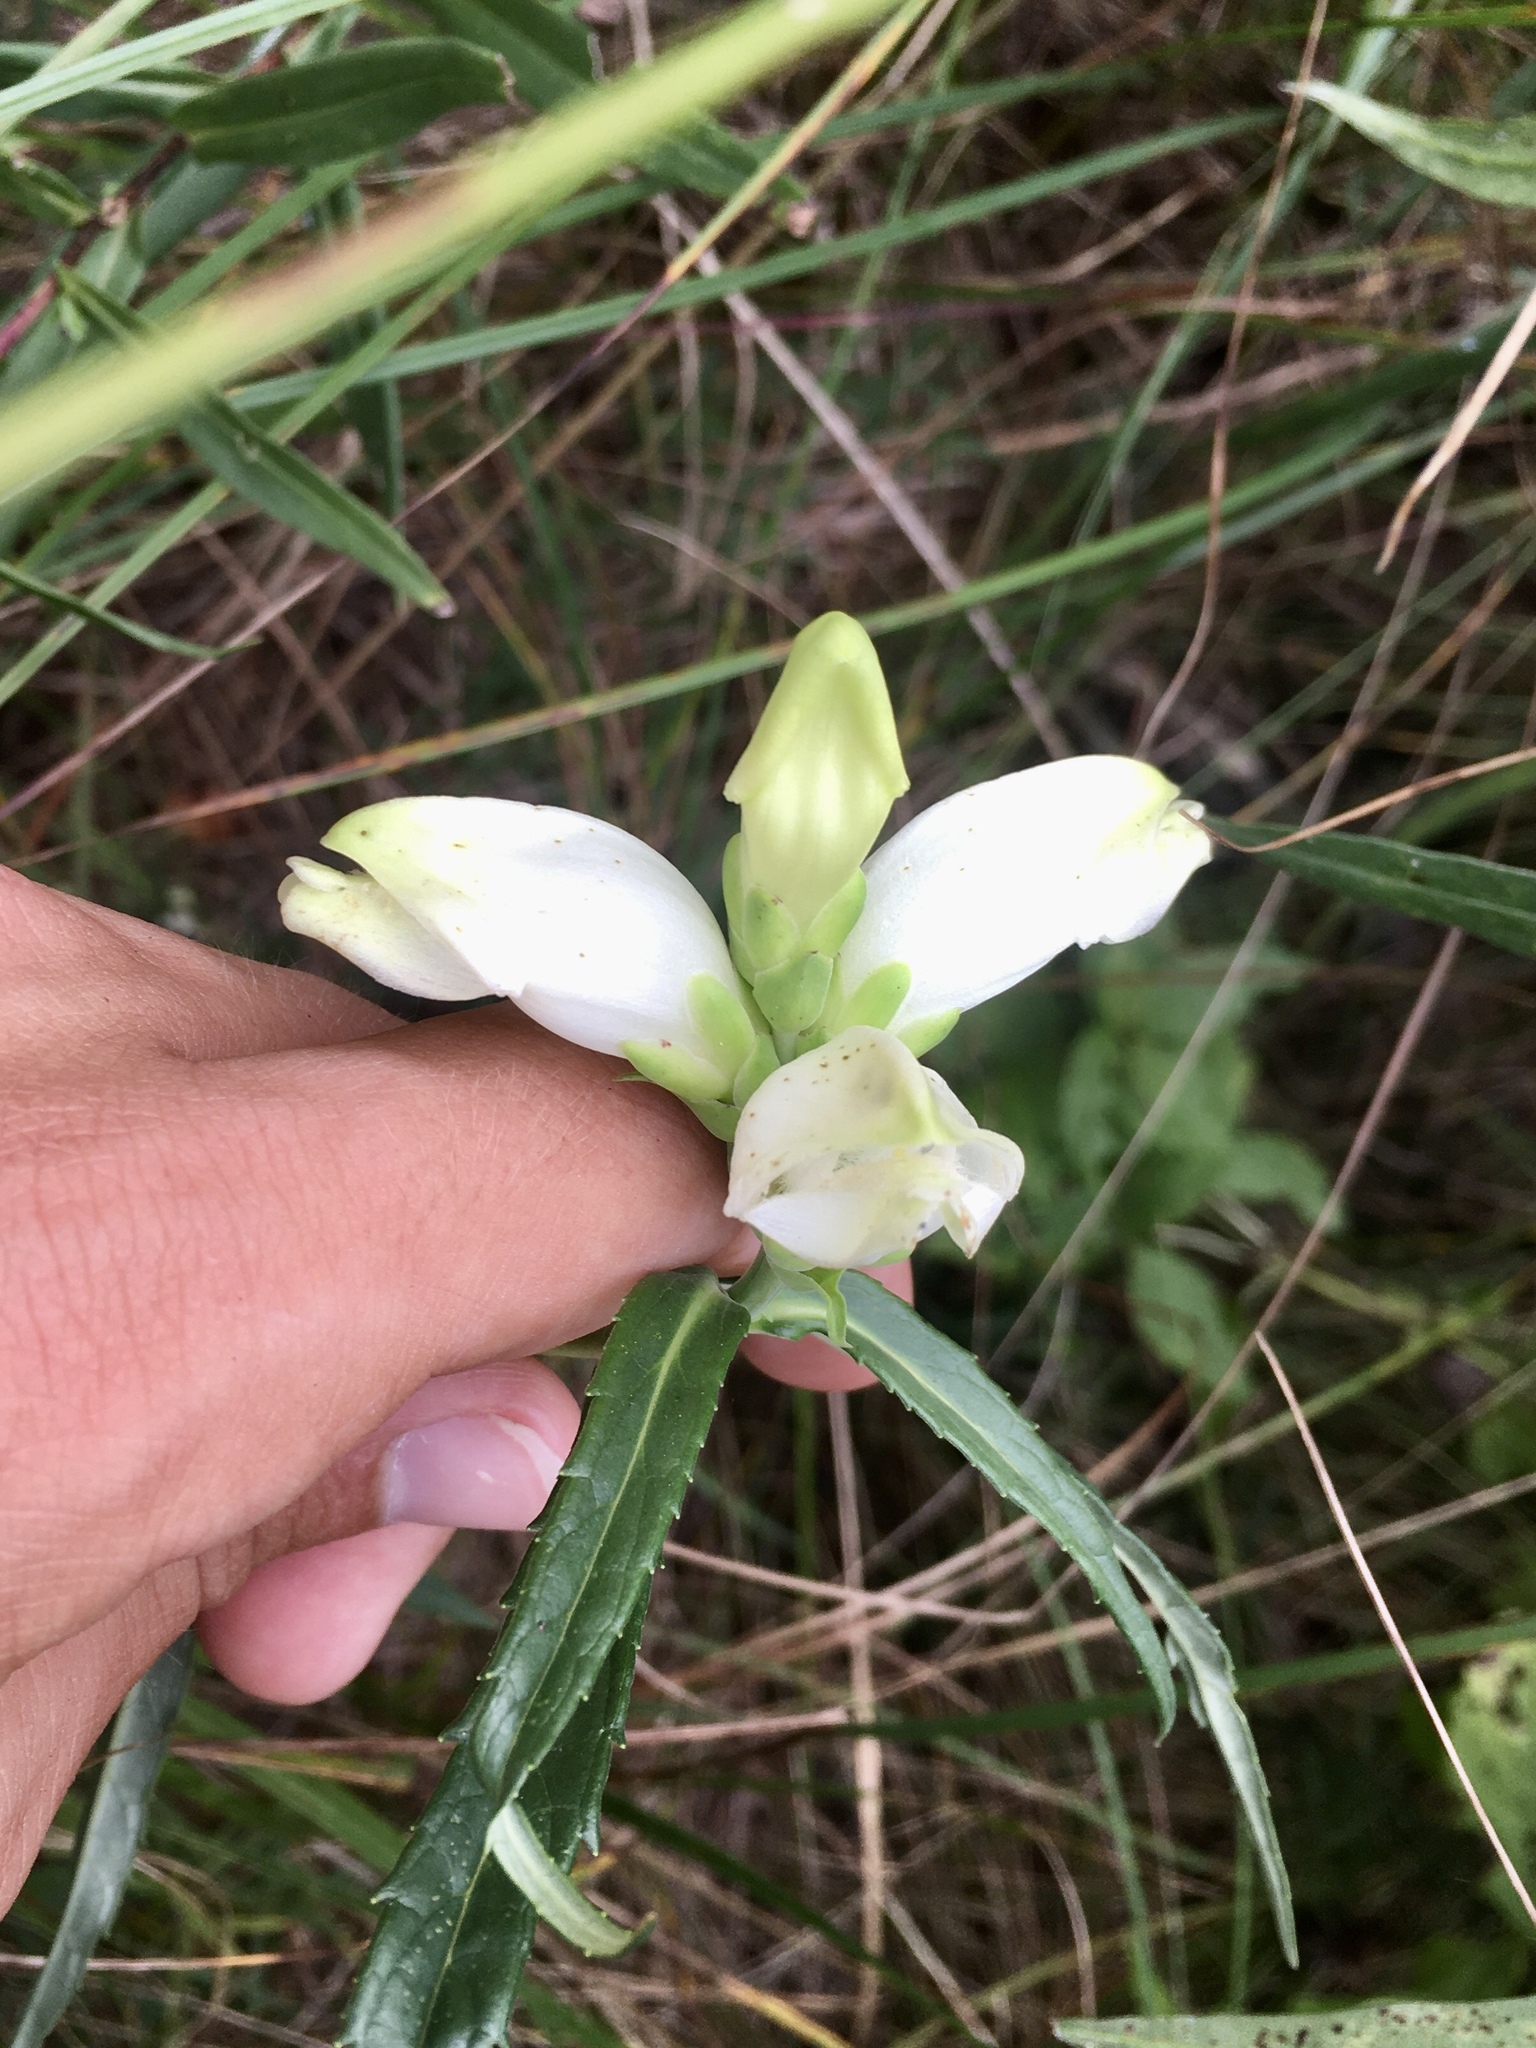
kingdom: Plantae
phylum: Tracheophyta
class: Magnoliopsida
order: Lamiales
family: Plantaginaceae
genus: Chelone
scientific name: Chelone glabra
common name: Snakehead
